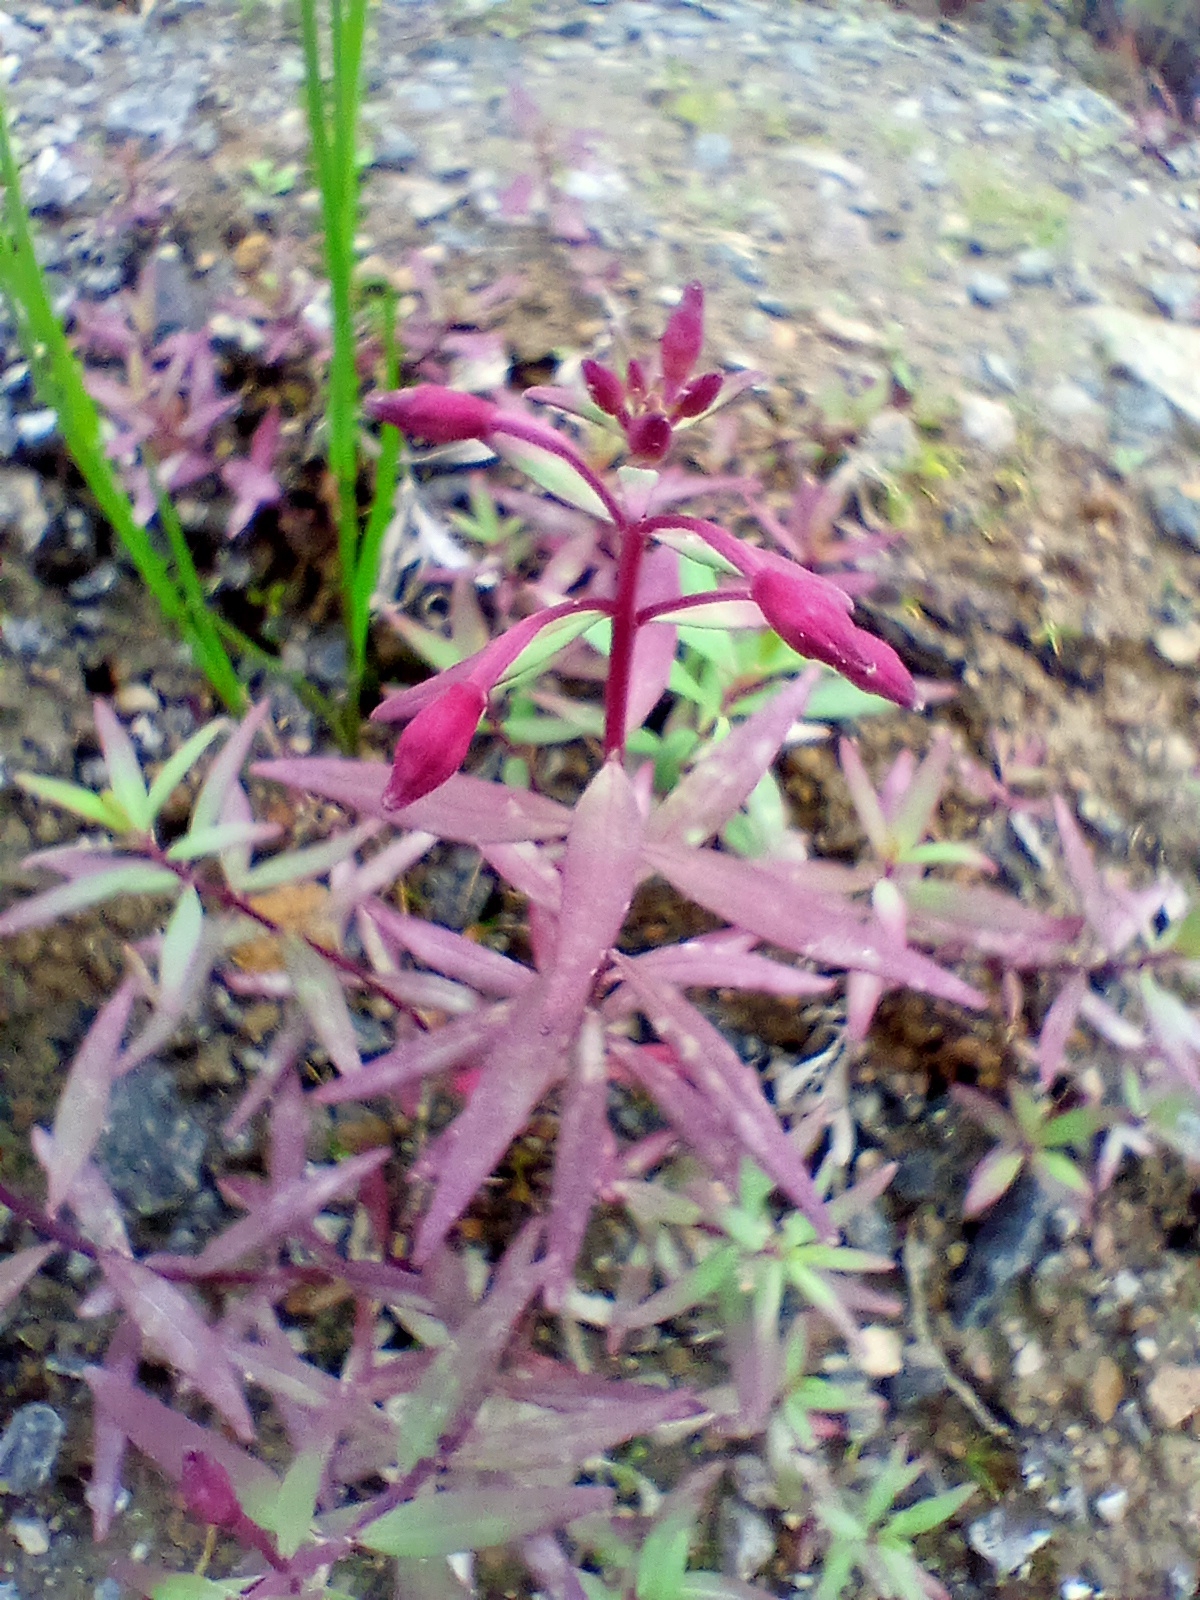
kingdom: Plantae
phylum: Tracheophyta
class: Magnoliopsida
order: Myrtales
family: Onagraceae
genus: Chamaenerion
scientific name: Chamaenerion latifolium
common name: Dwarf fireweed
